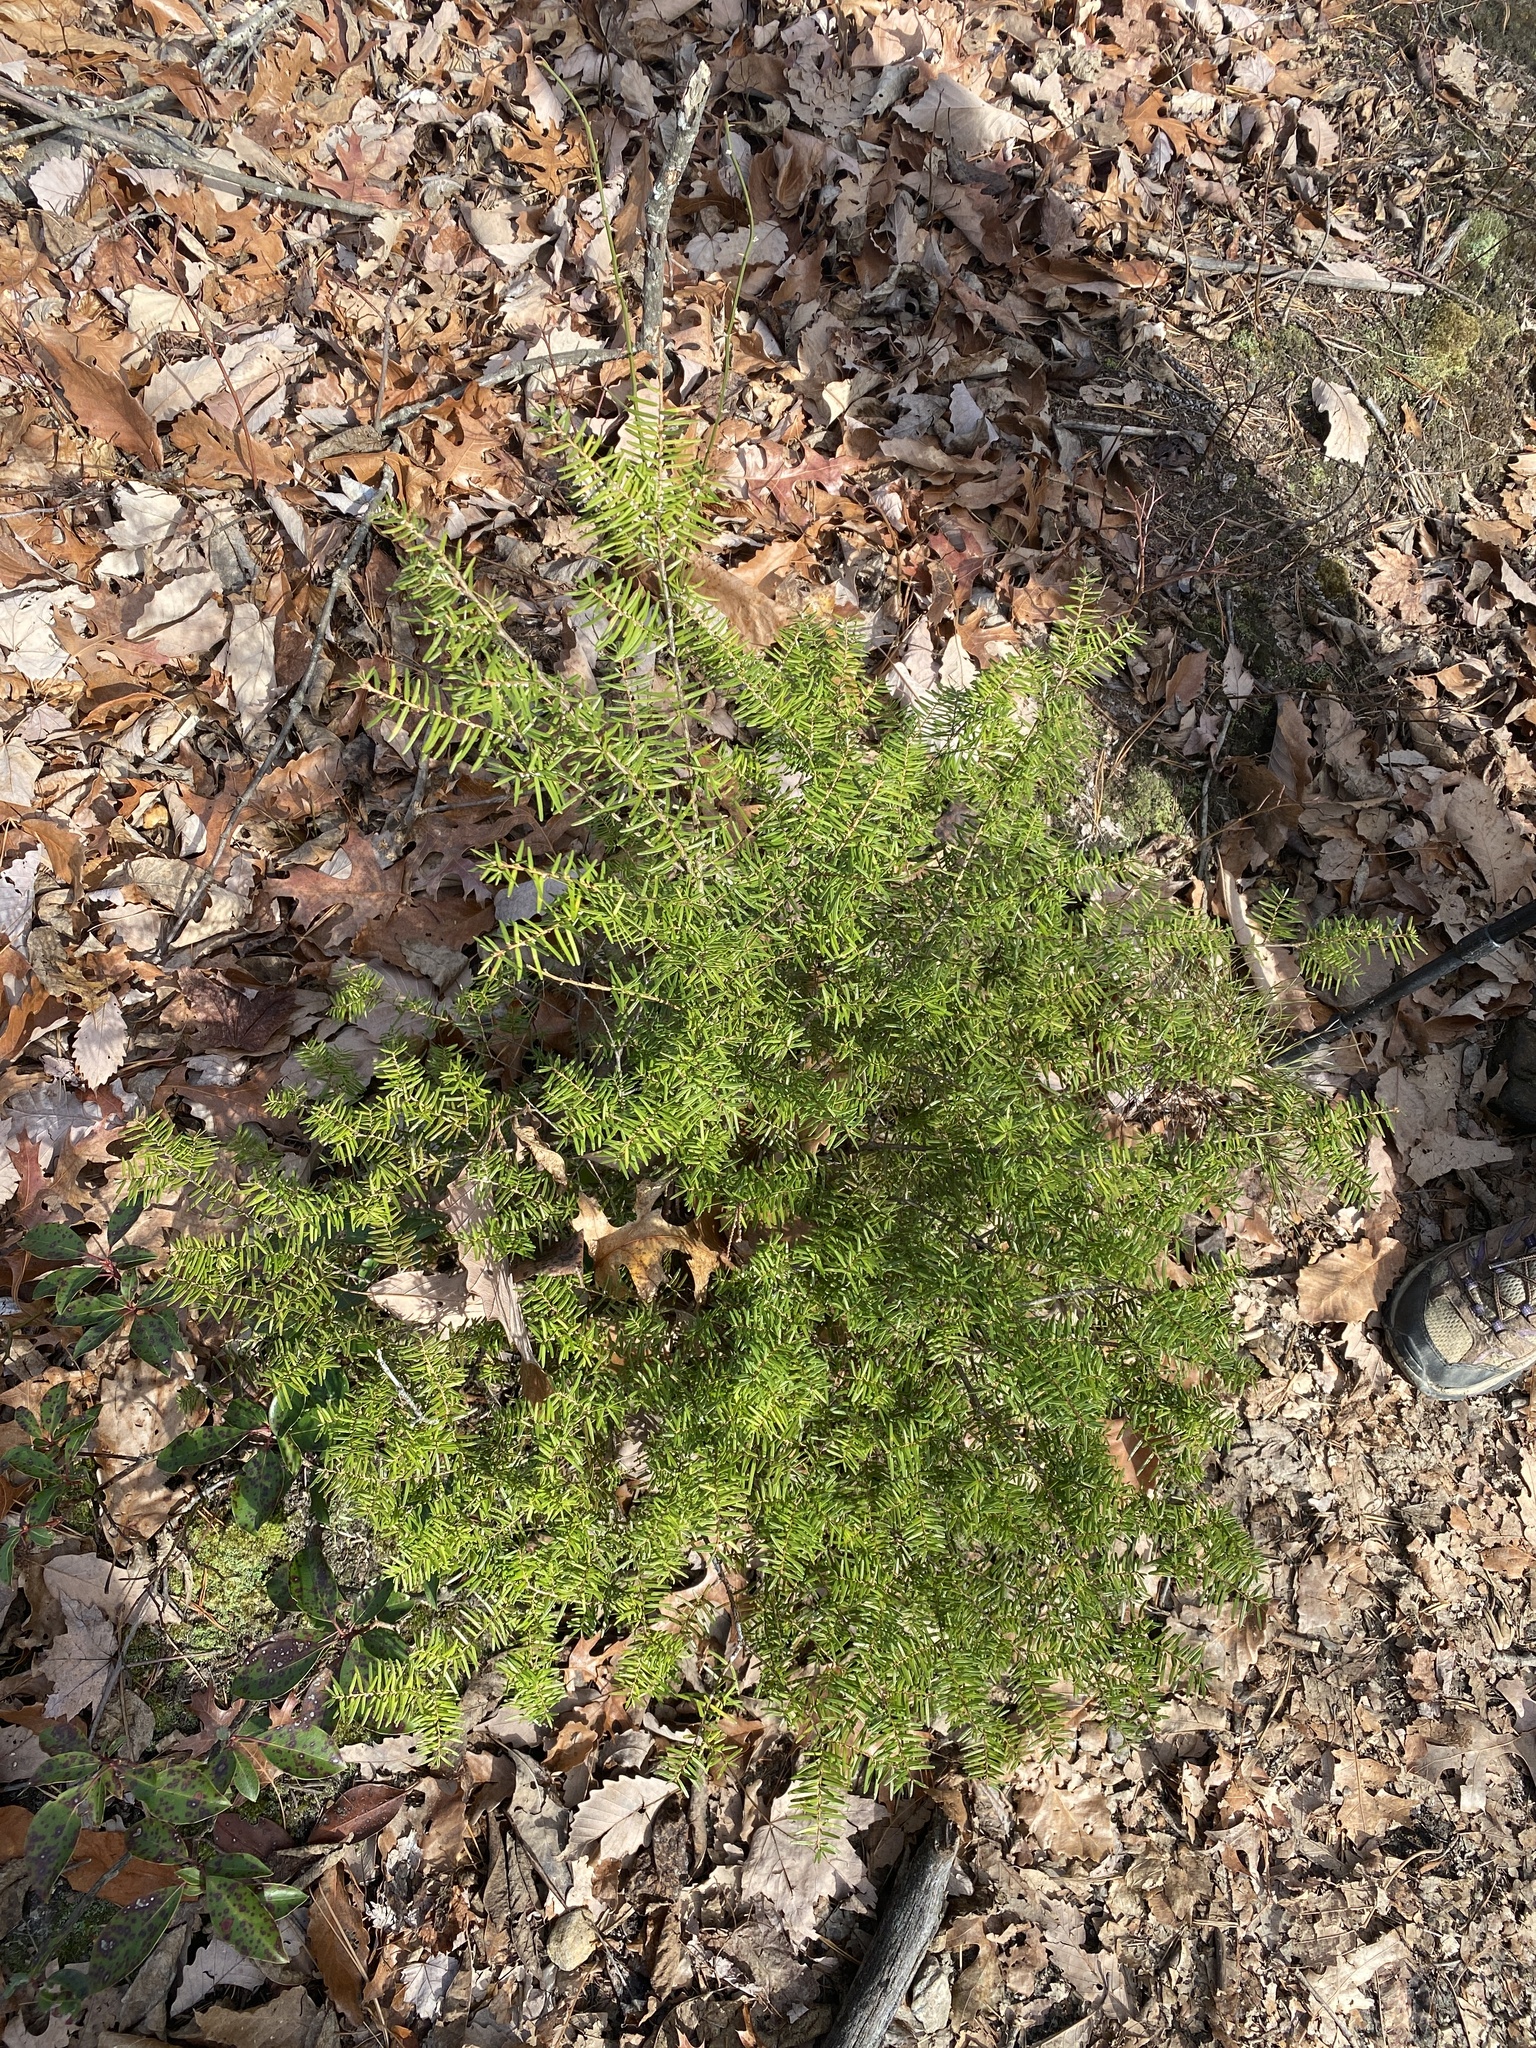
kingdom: Plantae
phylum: Tracheophyta
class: Pinopsida
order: Pinales
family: Pinaceae
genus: Tsuga
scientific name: Tsuga caroliniana
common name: Carolina hemlock
